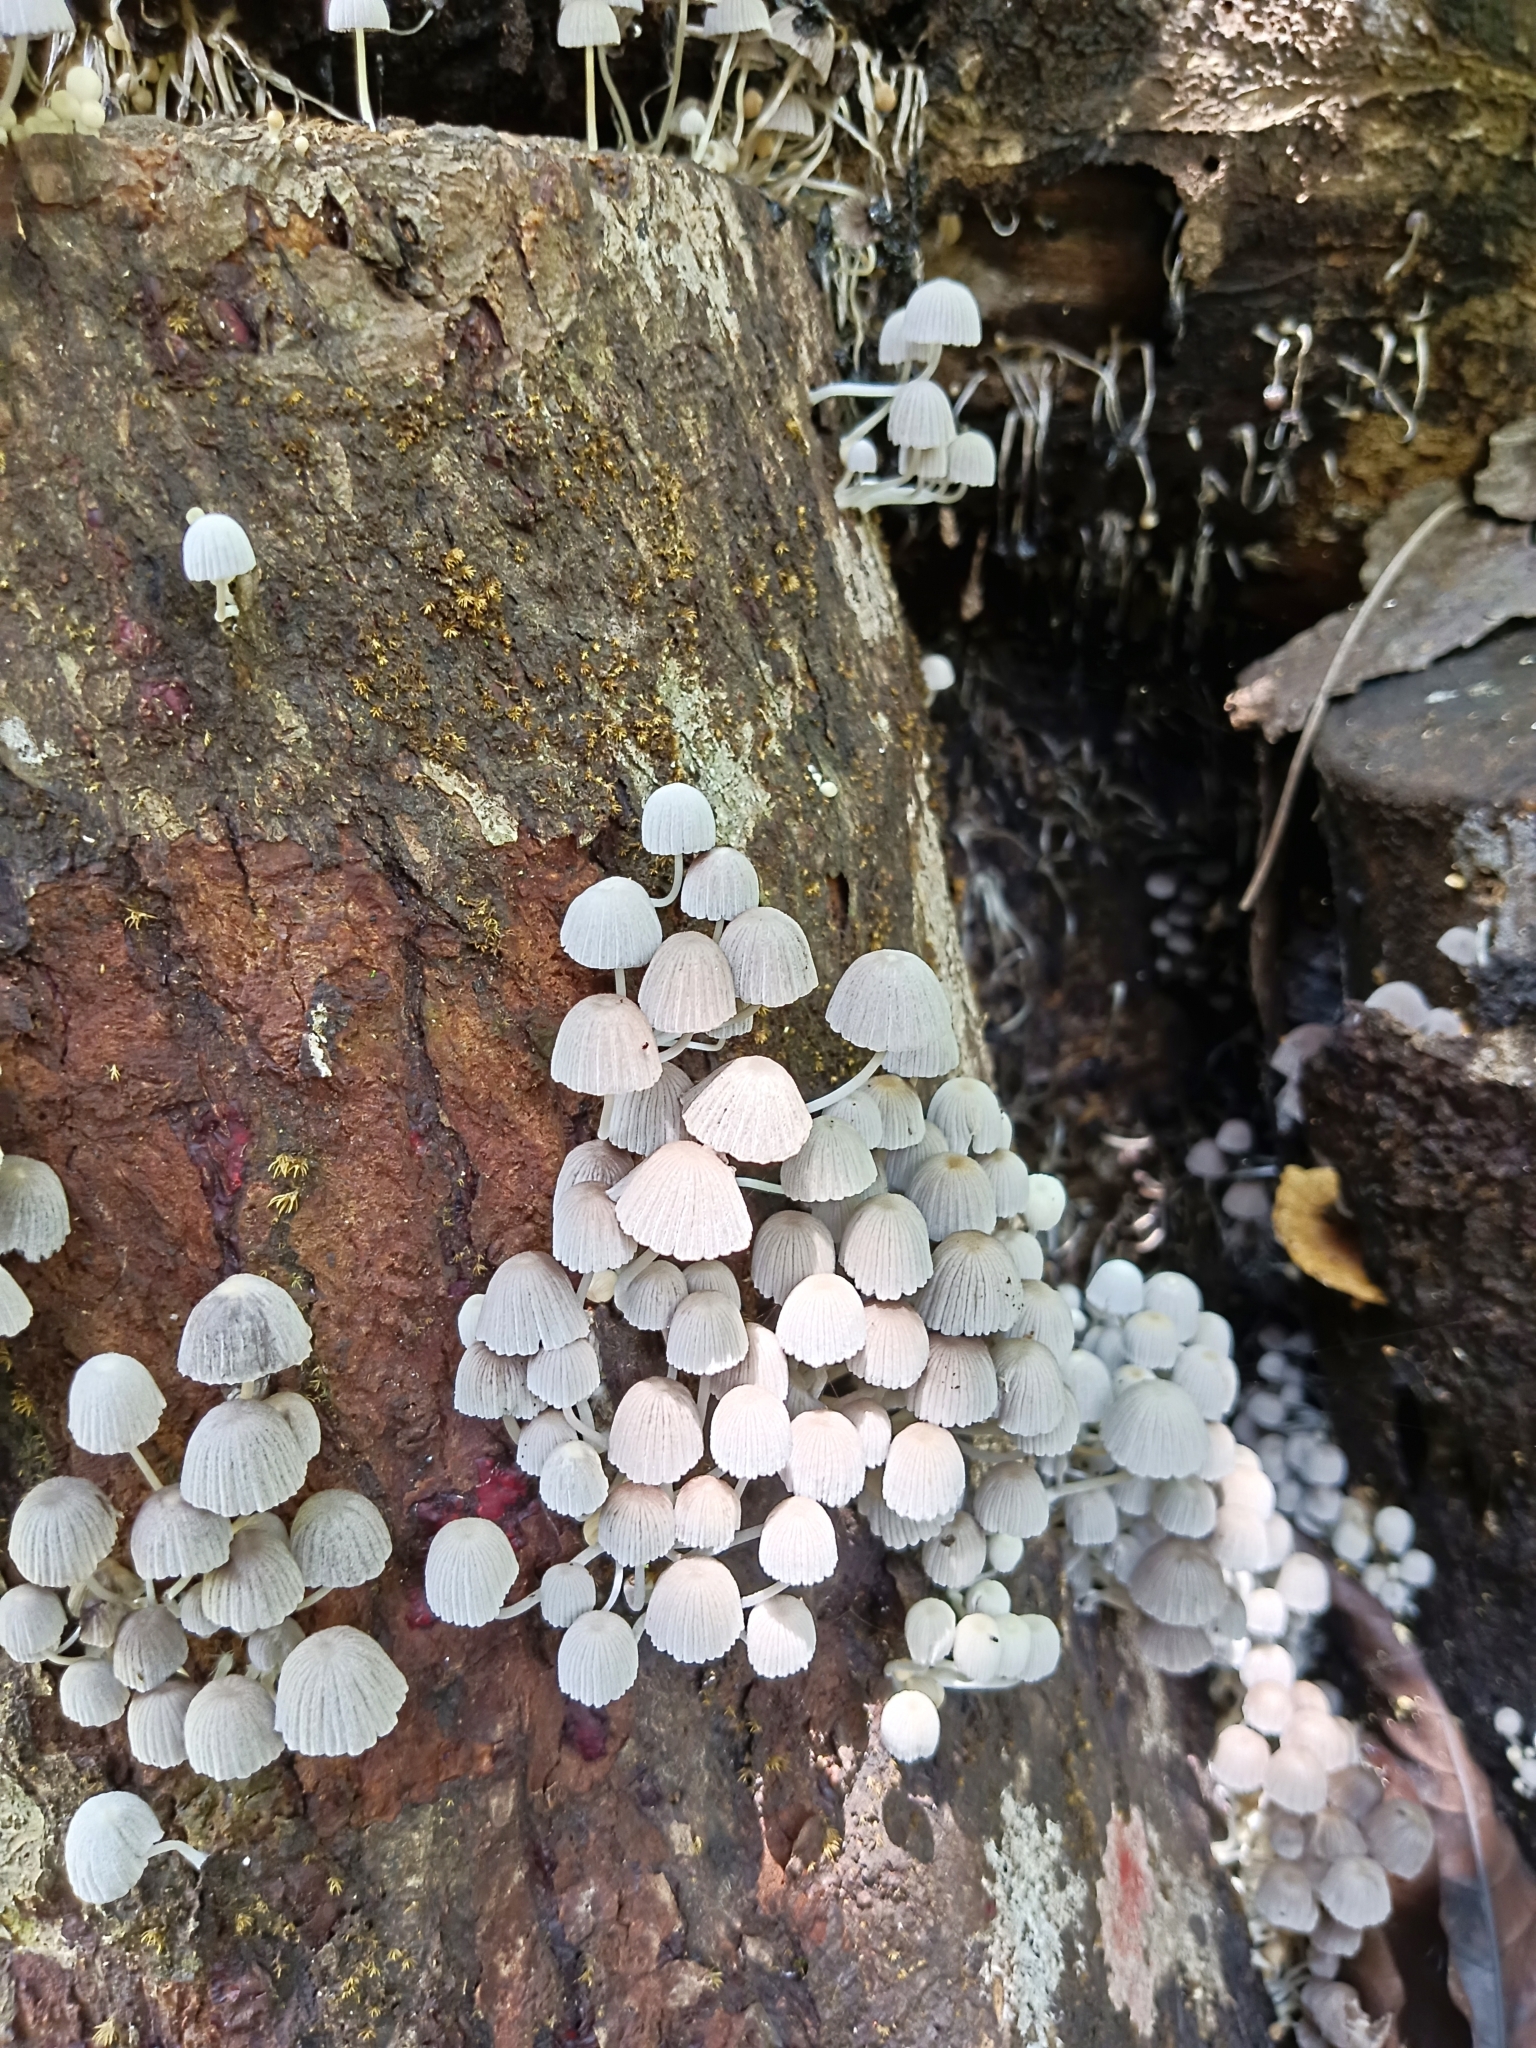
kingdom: Fungi
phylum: Basidiomycota
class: Agaricomycetes
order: Agaricales
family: Psathyrellaceae
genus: Coprinellus
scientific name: Coprinellus disseminatus
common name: Fairies' bonnets
